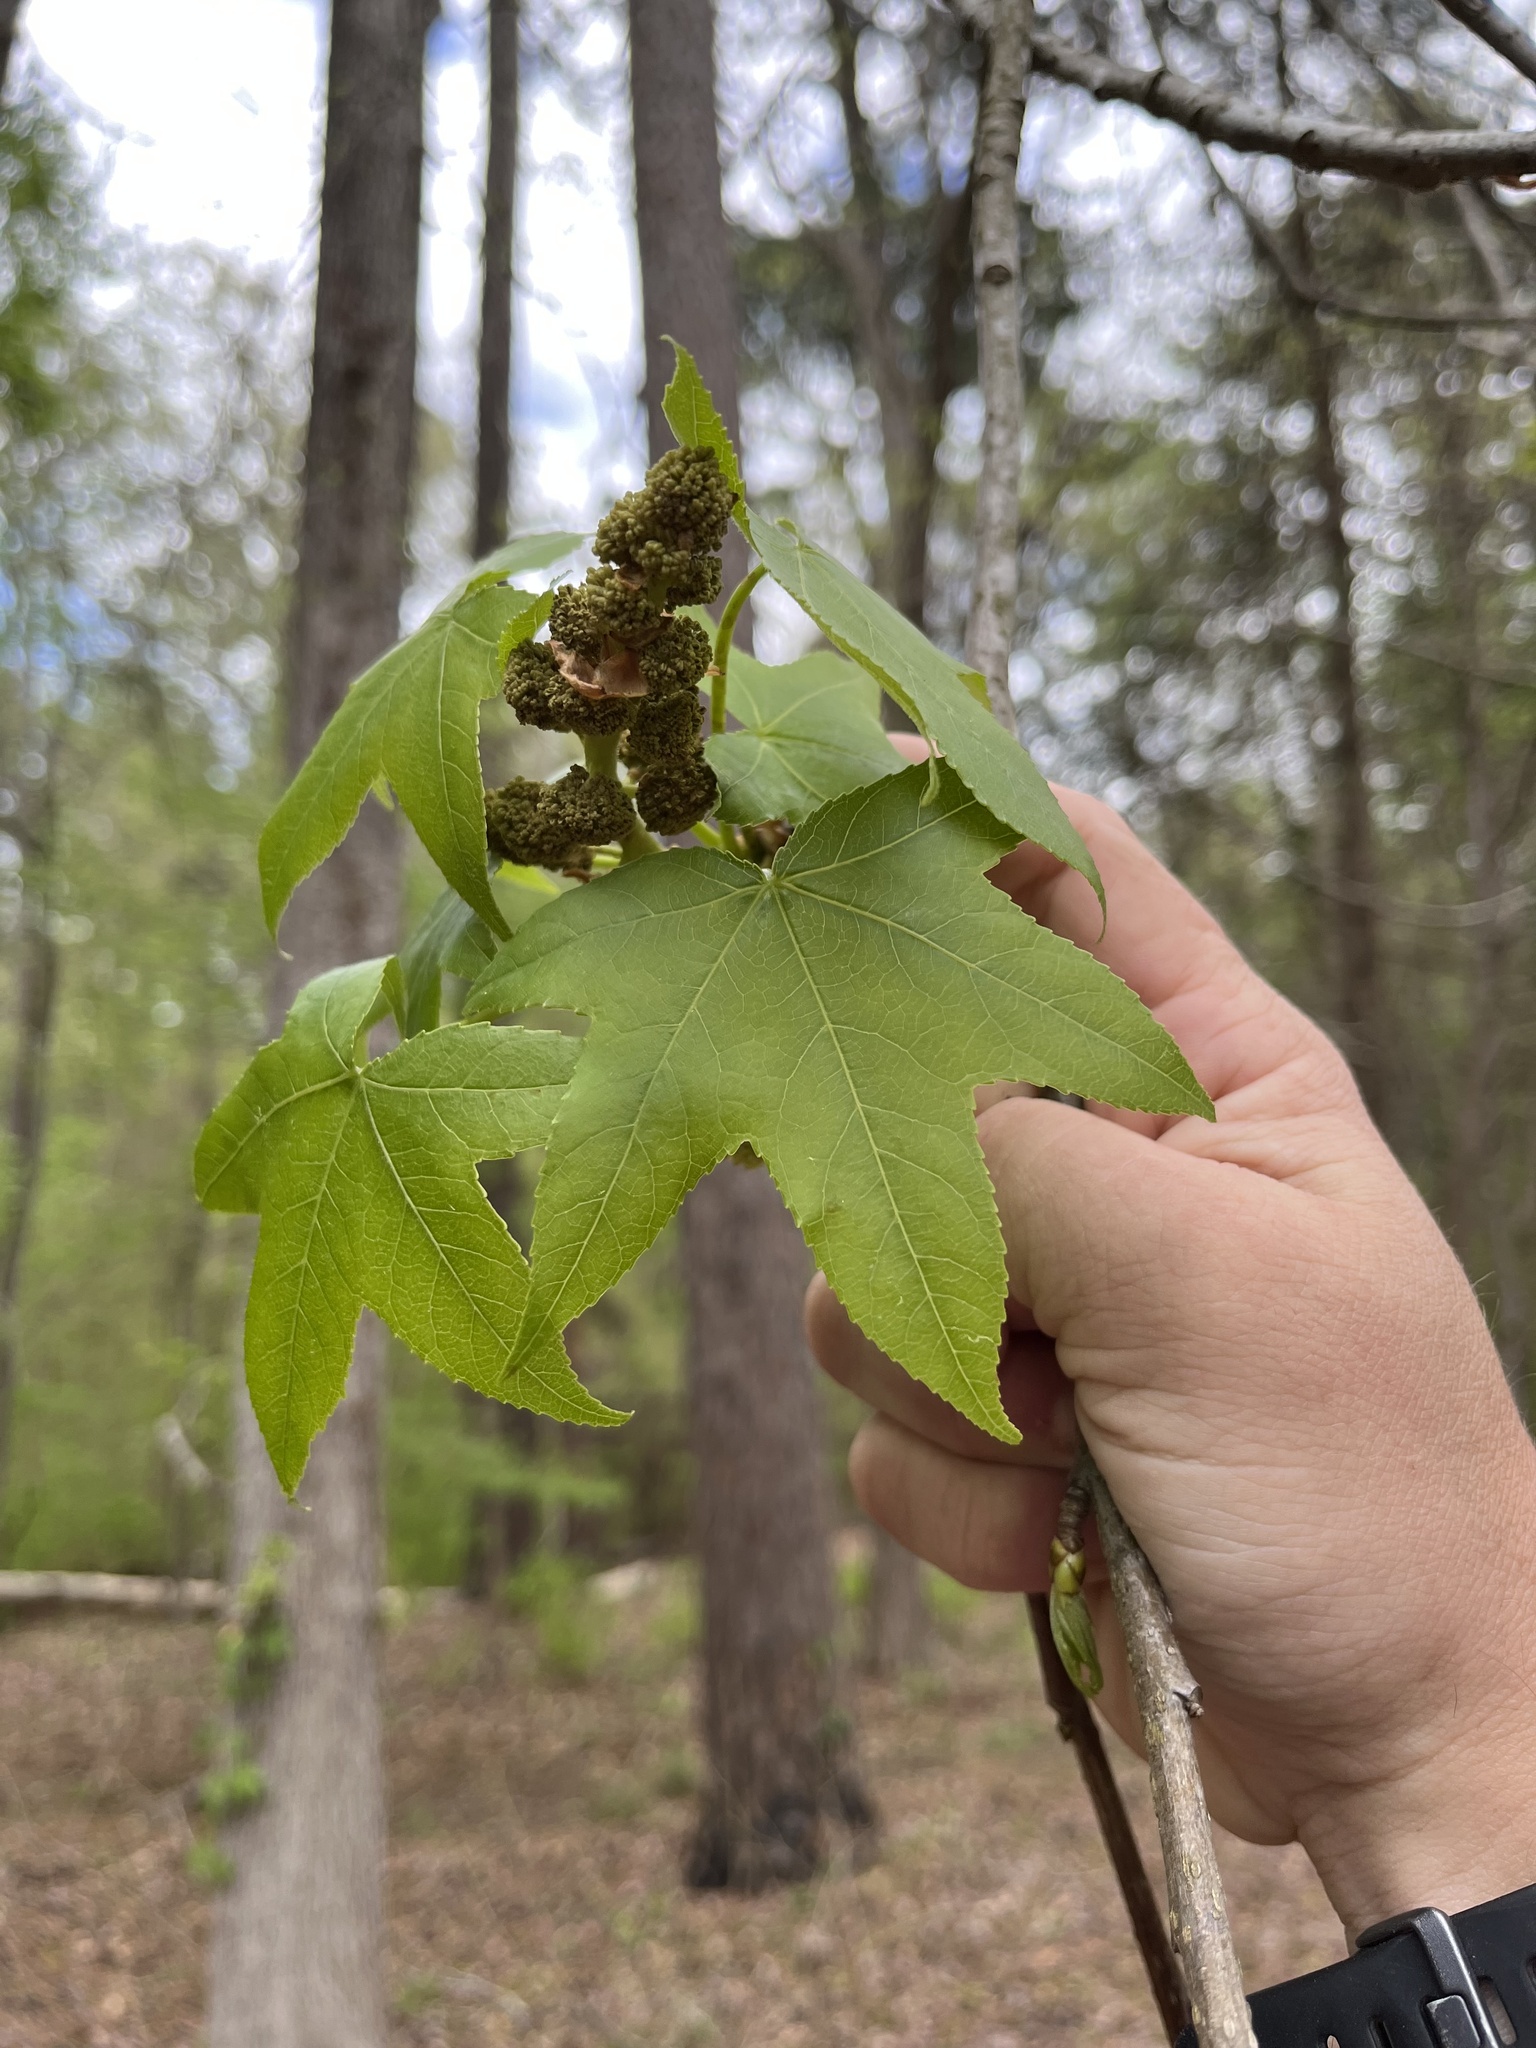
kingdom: Plantae
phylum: Tracheophyta
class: Magnoliopsida
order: Saxifragales
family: Altingiaceae
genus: Liquidambar
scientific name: Liquidambar styraciflua
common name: Sweet gum
